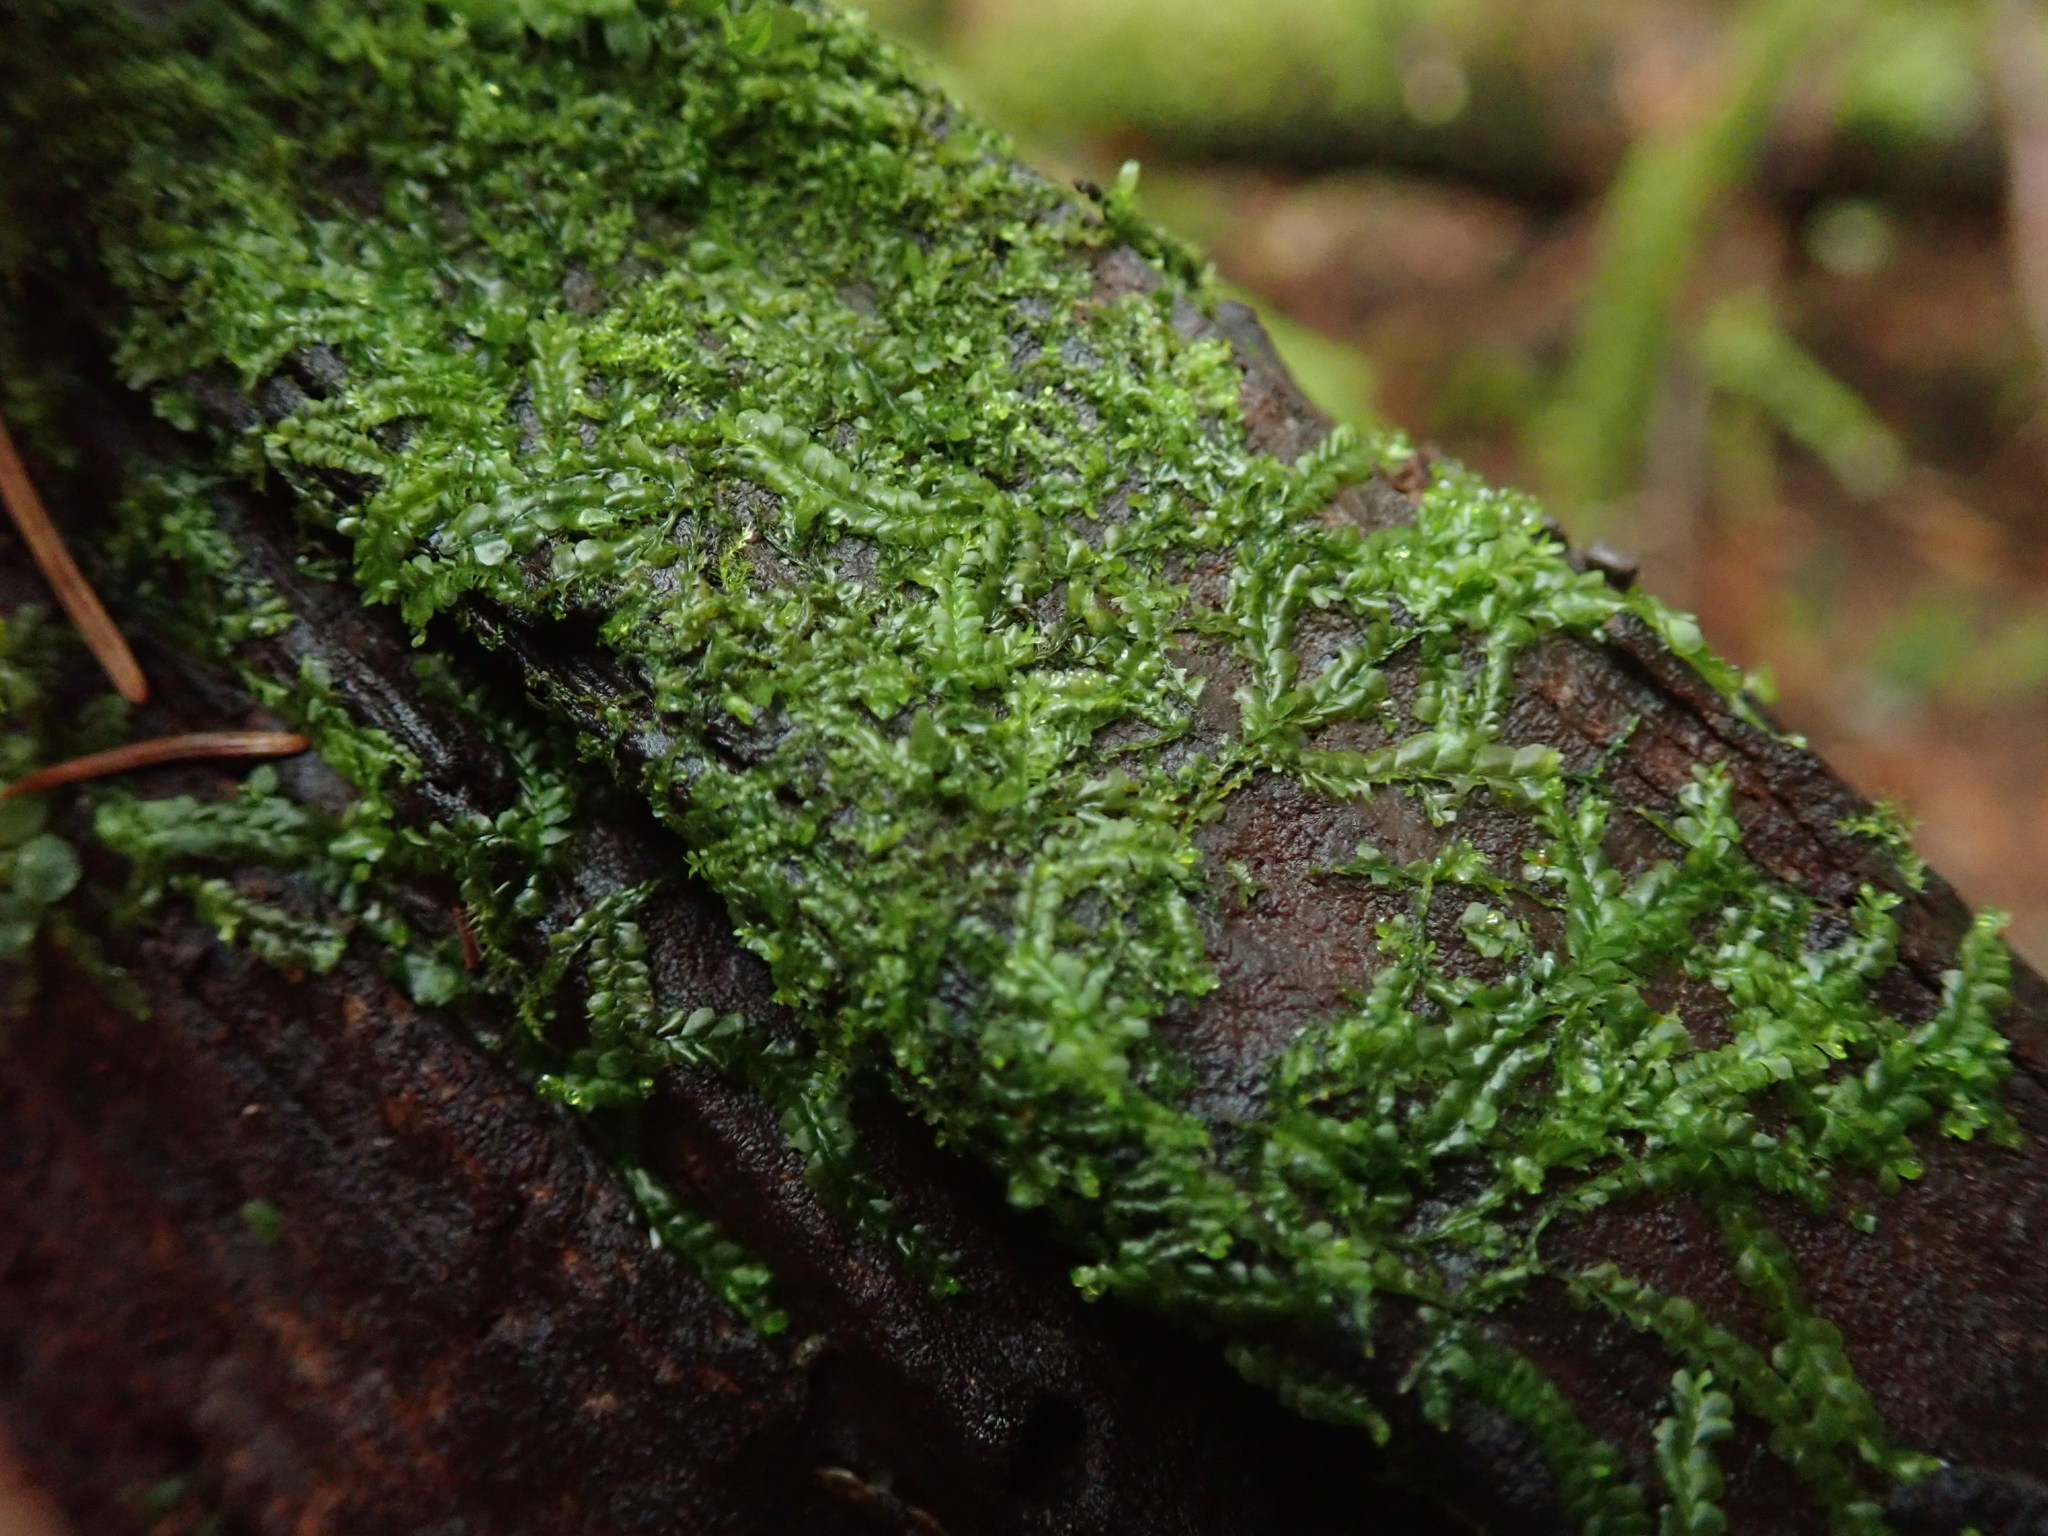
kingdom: Plantae
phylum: Marchantiophyta
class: Jungermanniopsida
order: Jungermanniales
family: Lophocoleaceae
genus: Lophocolea
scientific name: Lophocolea heterophylla
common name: Variable-leaved crestwort
